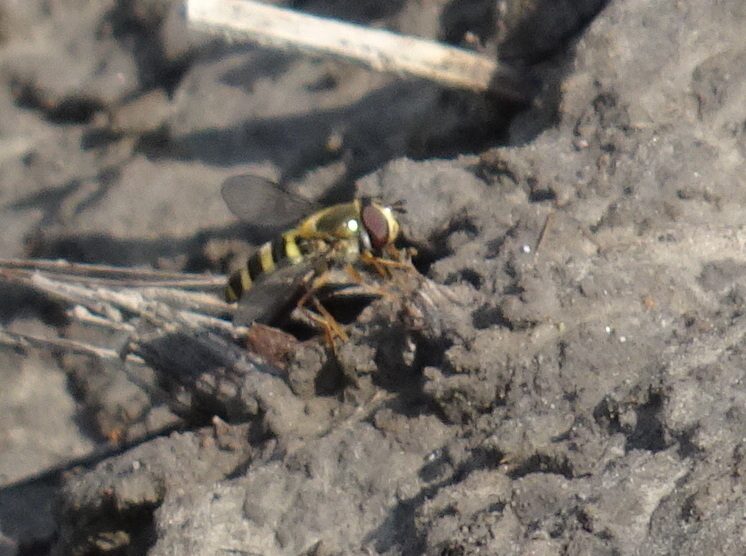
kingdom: Animalia
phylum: Arthropoda
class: Insecta
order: Diptera
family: Syrphidae
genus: Eupeodes
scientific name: Eupeodes
